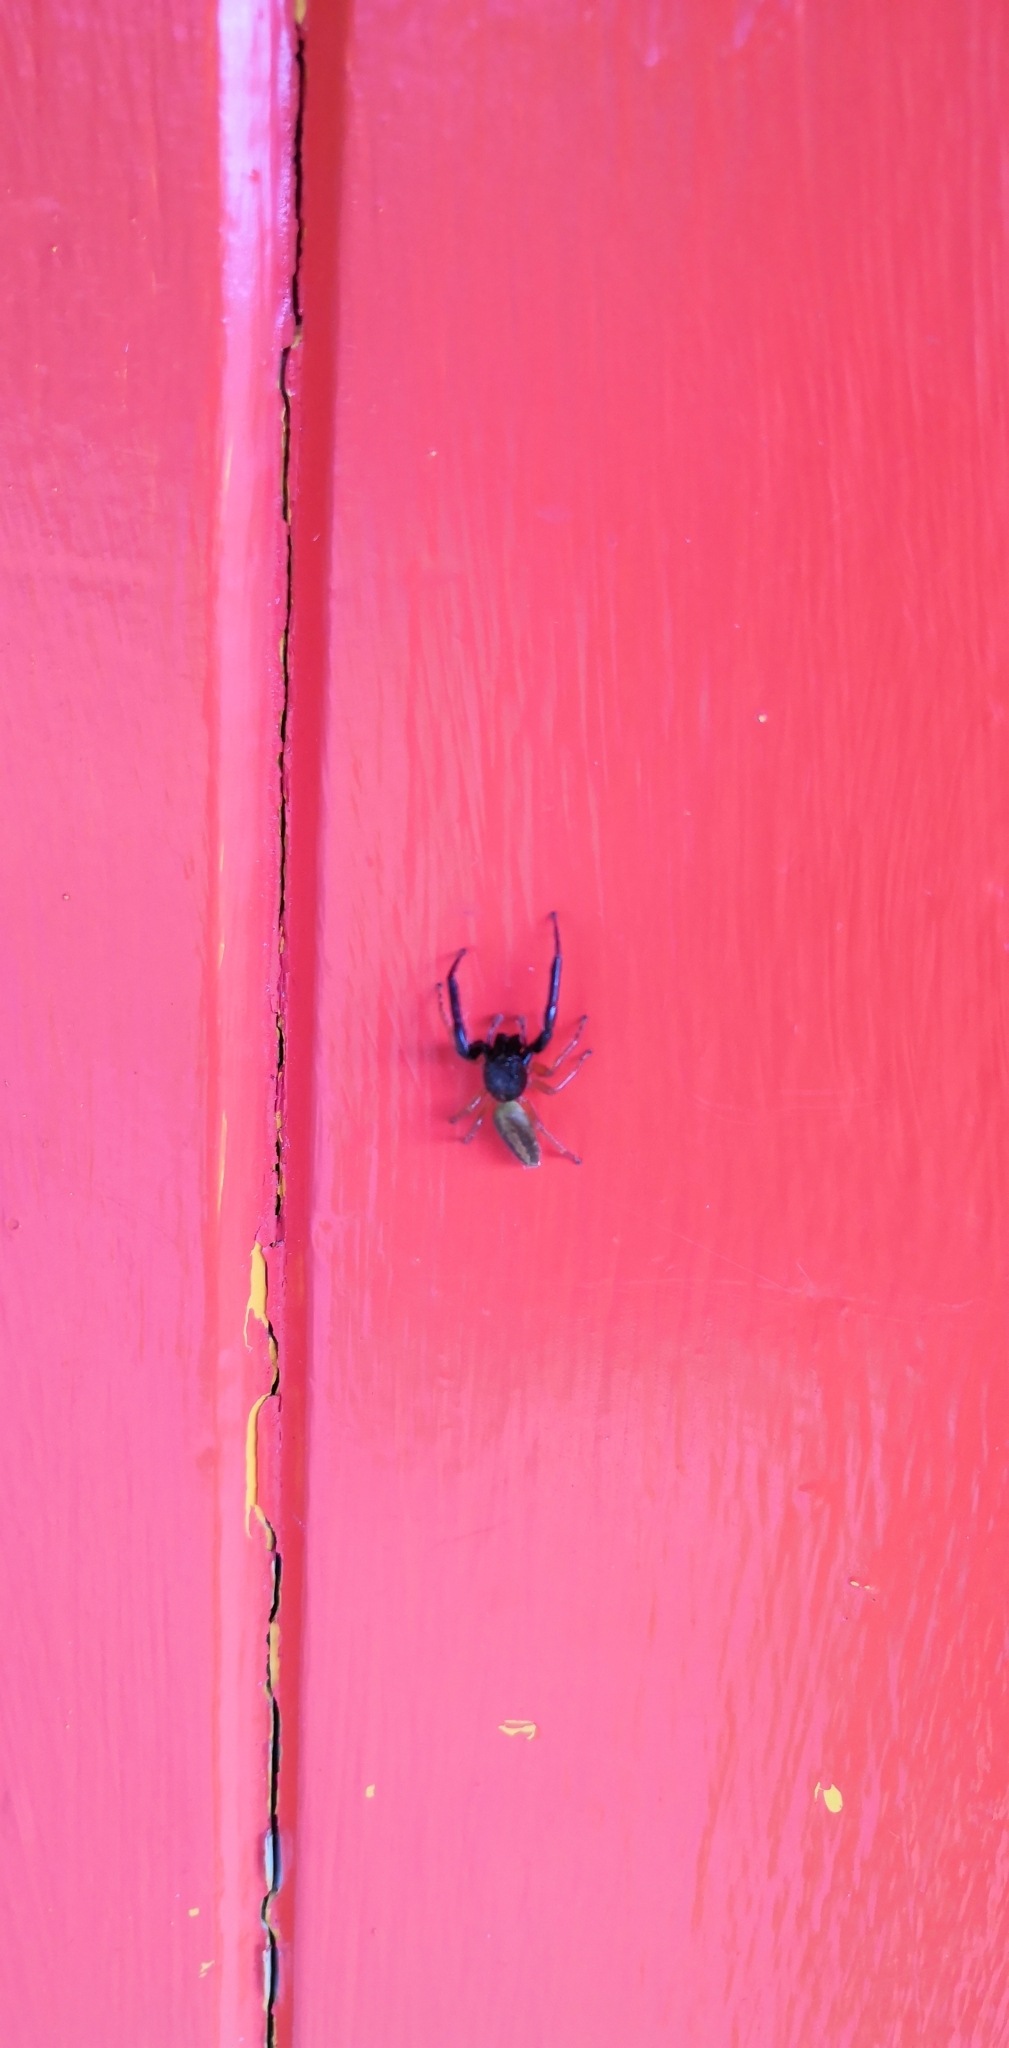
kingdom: Animalia
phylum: Arthropoda
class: Arachnida
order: Araneae
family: Salticidae
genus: Trite
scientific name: Trite planiceps
